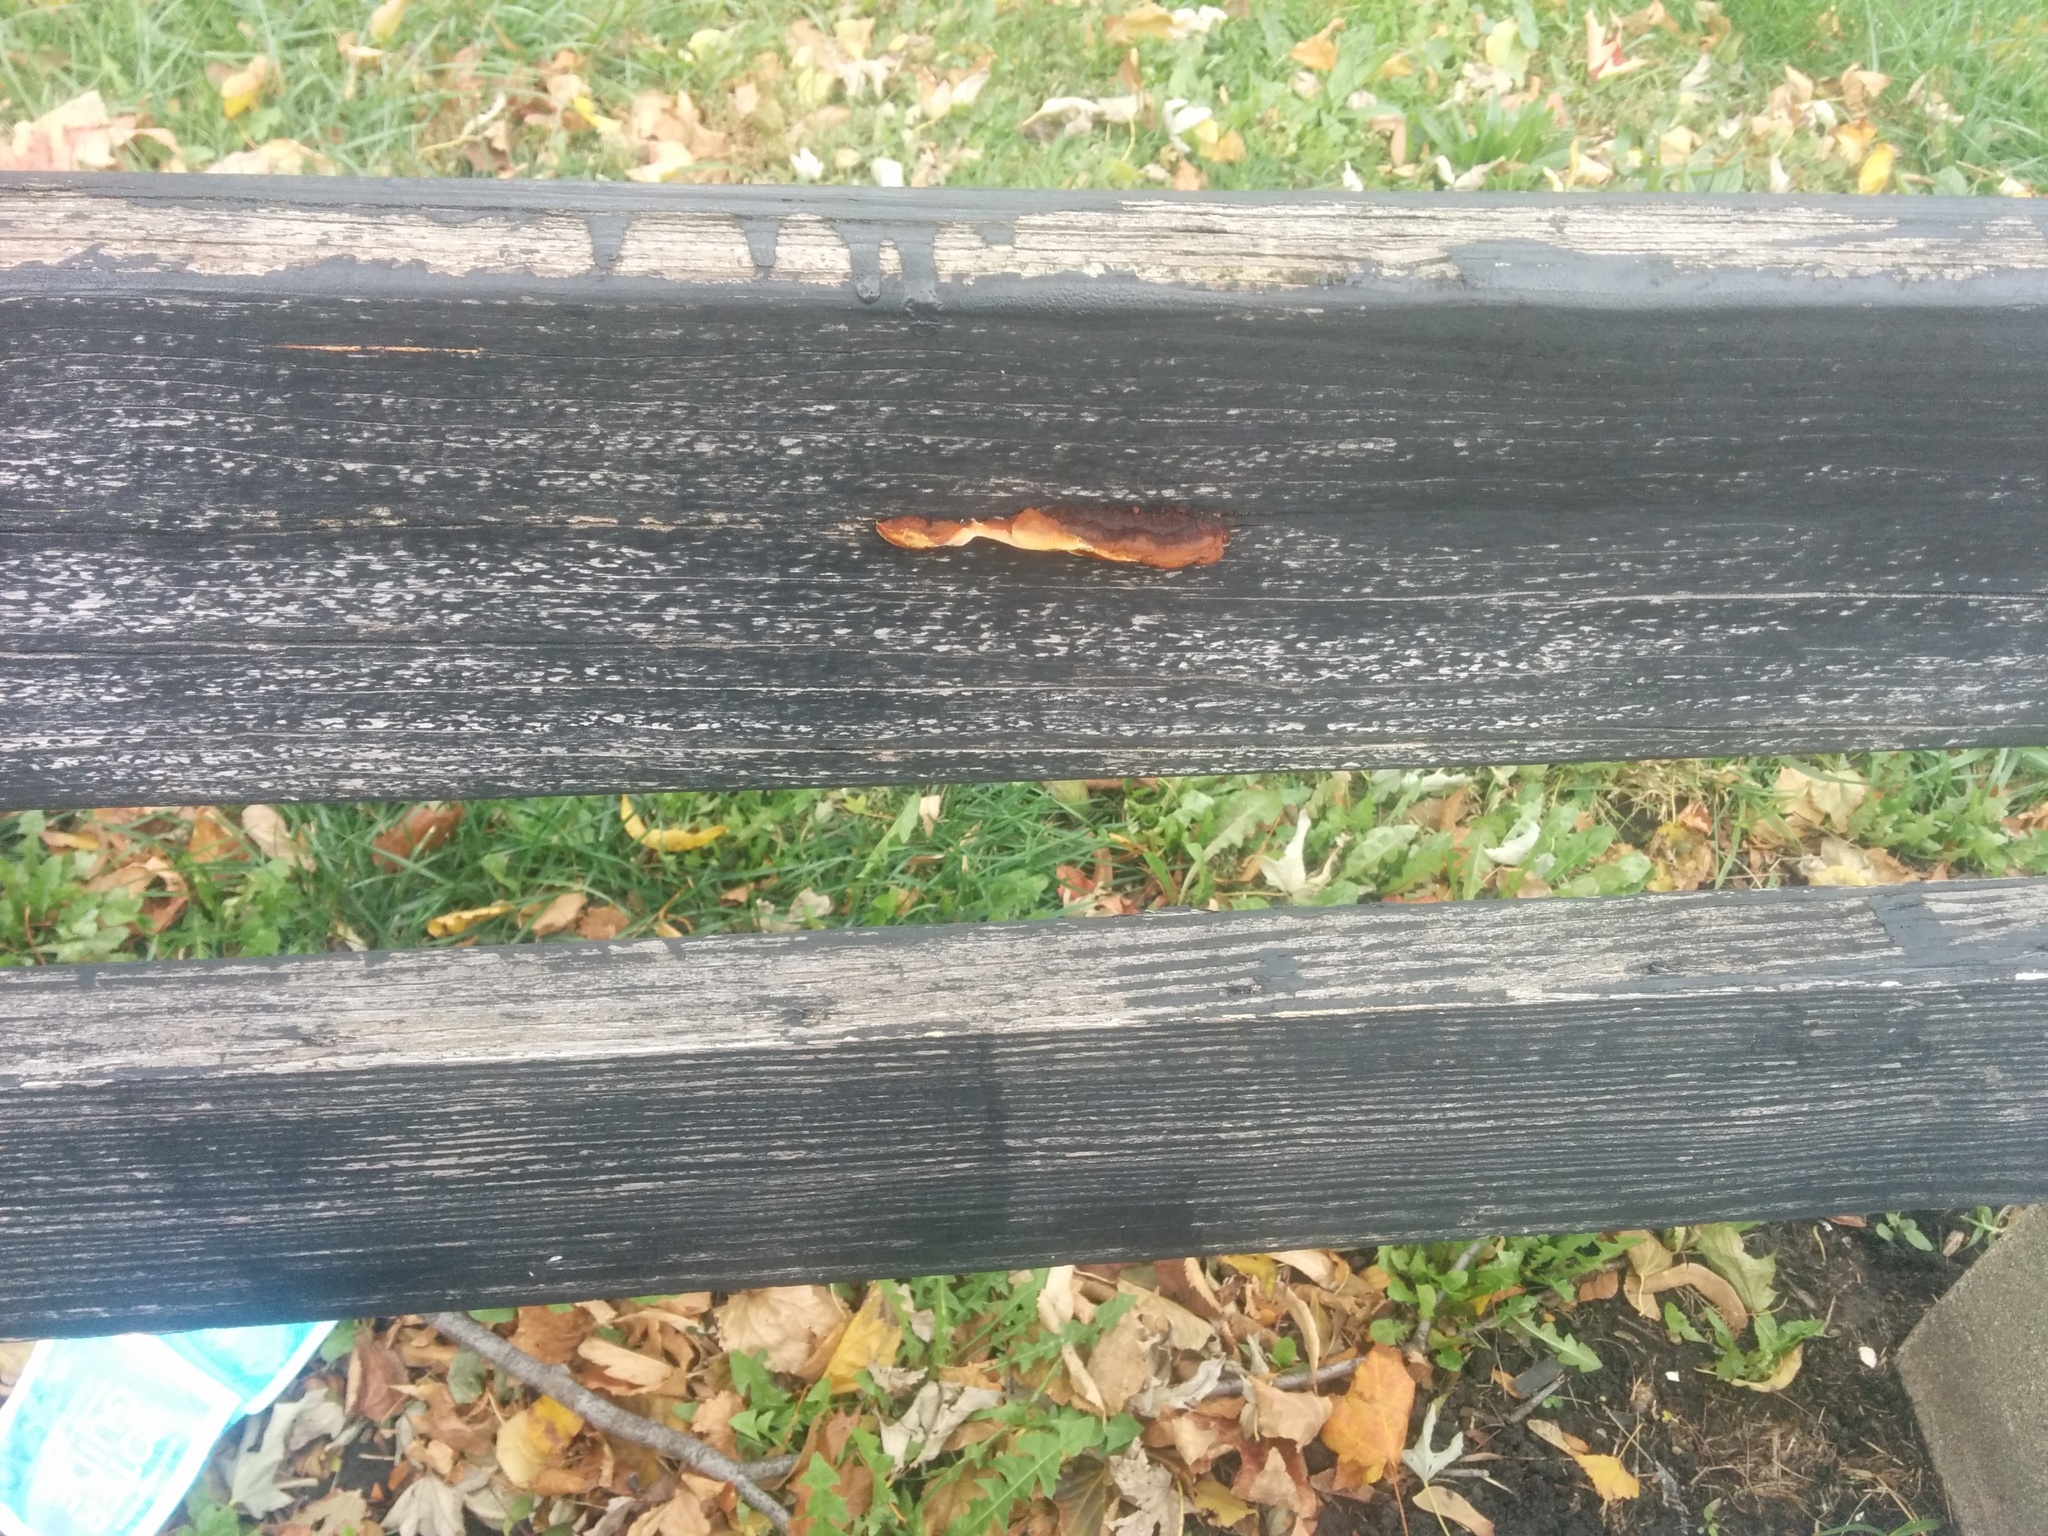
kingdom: Fungi
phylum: Basidiomycota
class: Agaricomycetes
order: Gloeophyllales
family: Gloeophyllaceae
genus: Gloeophyllum
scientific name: Gloeophyllum sepiarium
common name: Conifer mazegill
